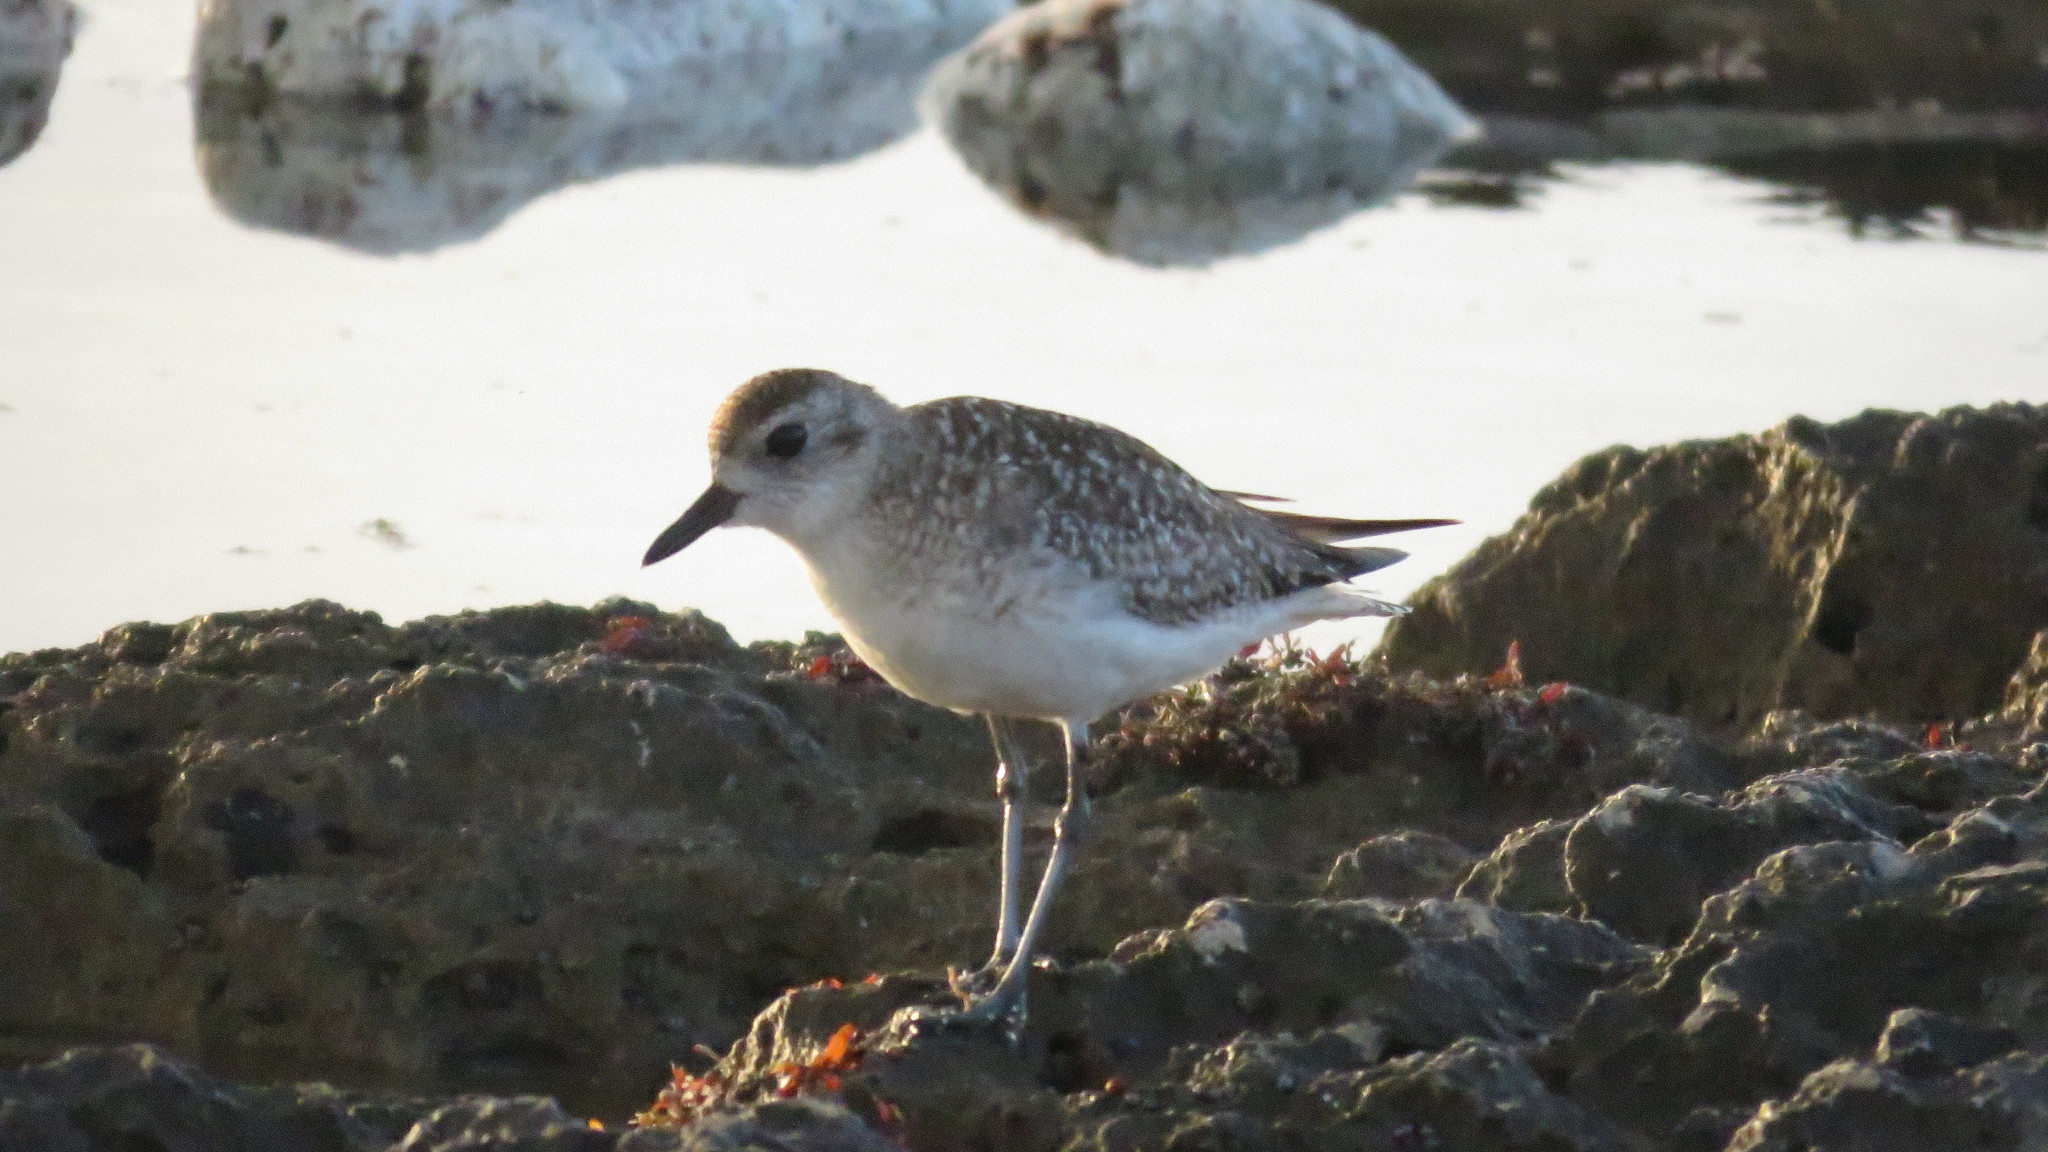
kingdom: Animalia
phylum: Chordata
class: Aves
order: Charadriiformes
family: Charadriidae
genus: Pluvialis
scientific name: Pluvialis squatarola
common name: Grey plover
